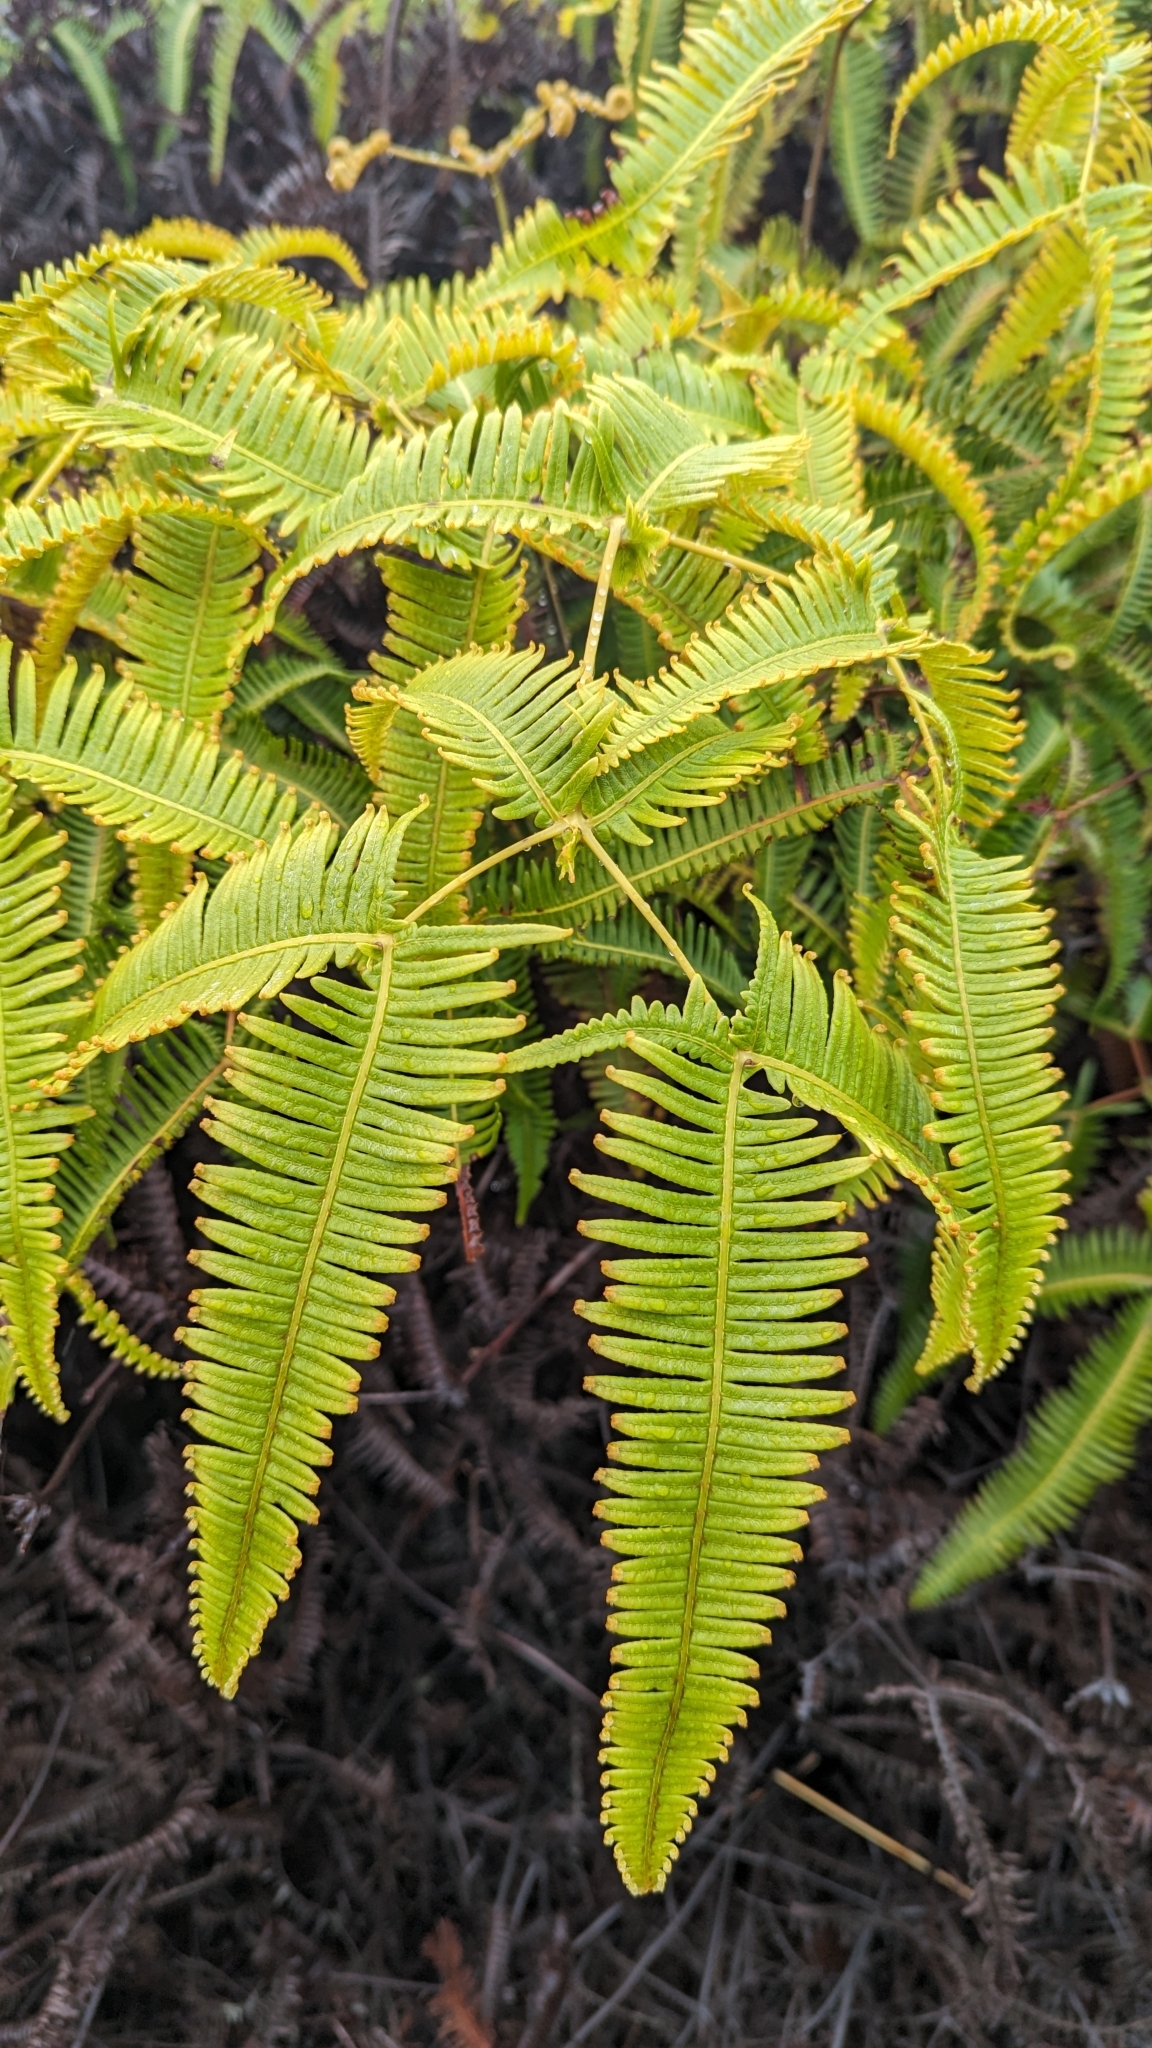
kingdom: Plantae
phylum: Tracheophyta
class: Polypodiopsida
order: Gleicheniales
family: Gleicheniaceae
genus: Dicranopteris
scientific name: Dicranopteris linearis
